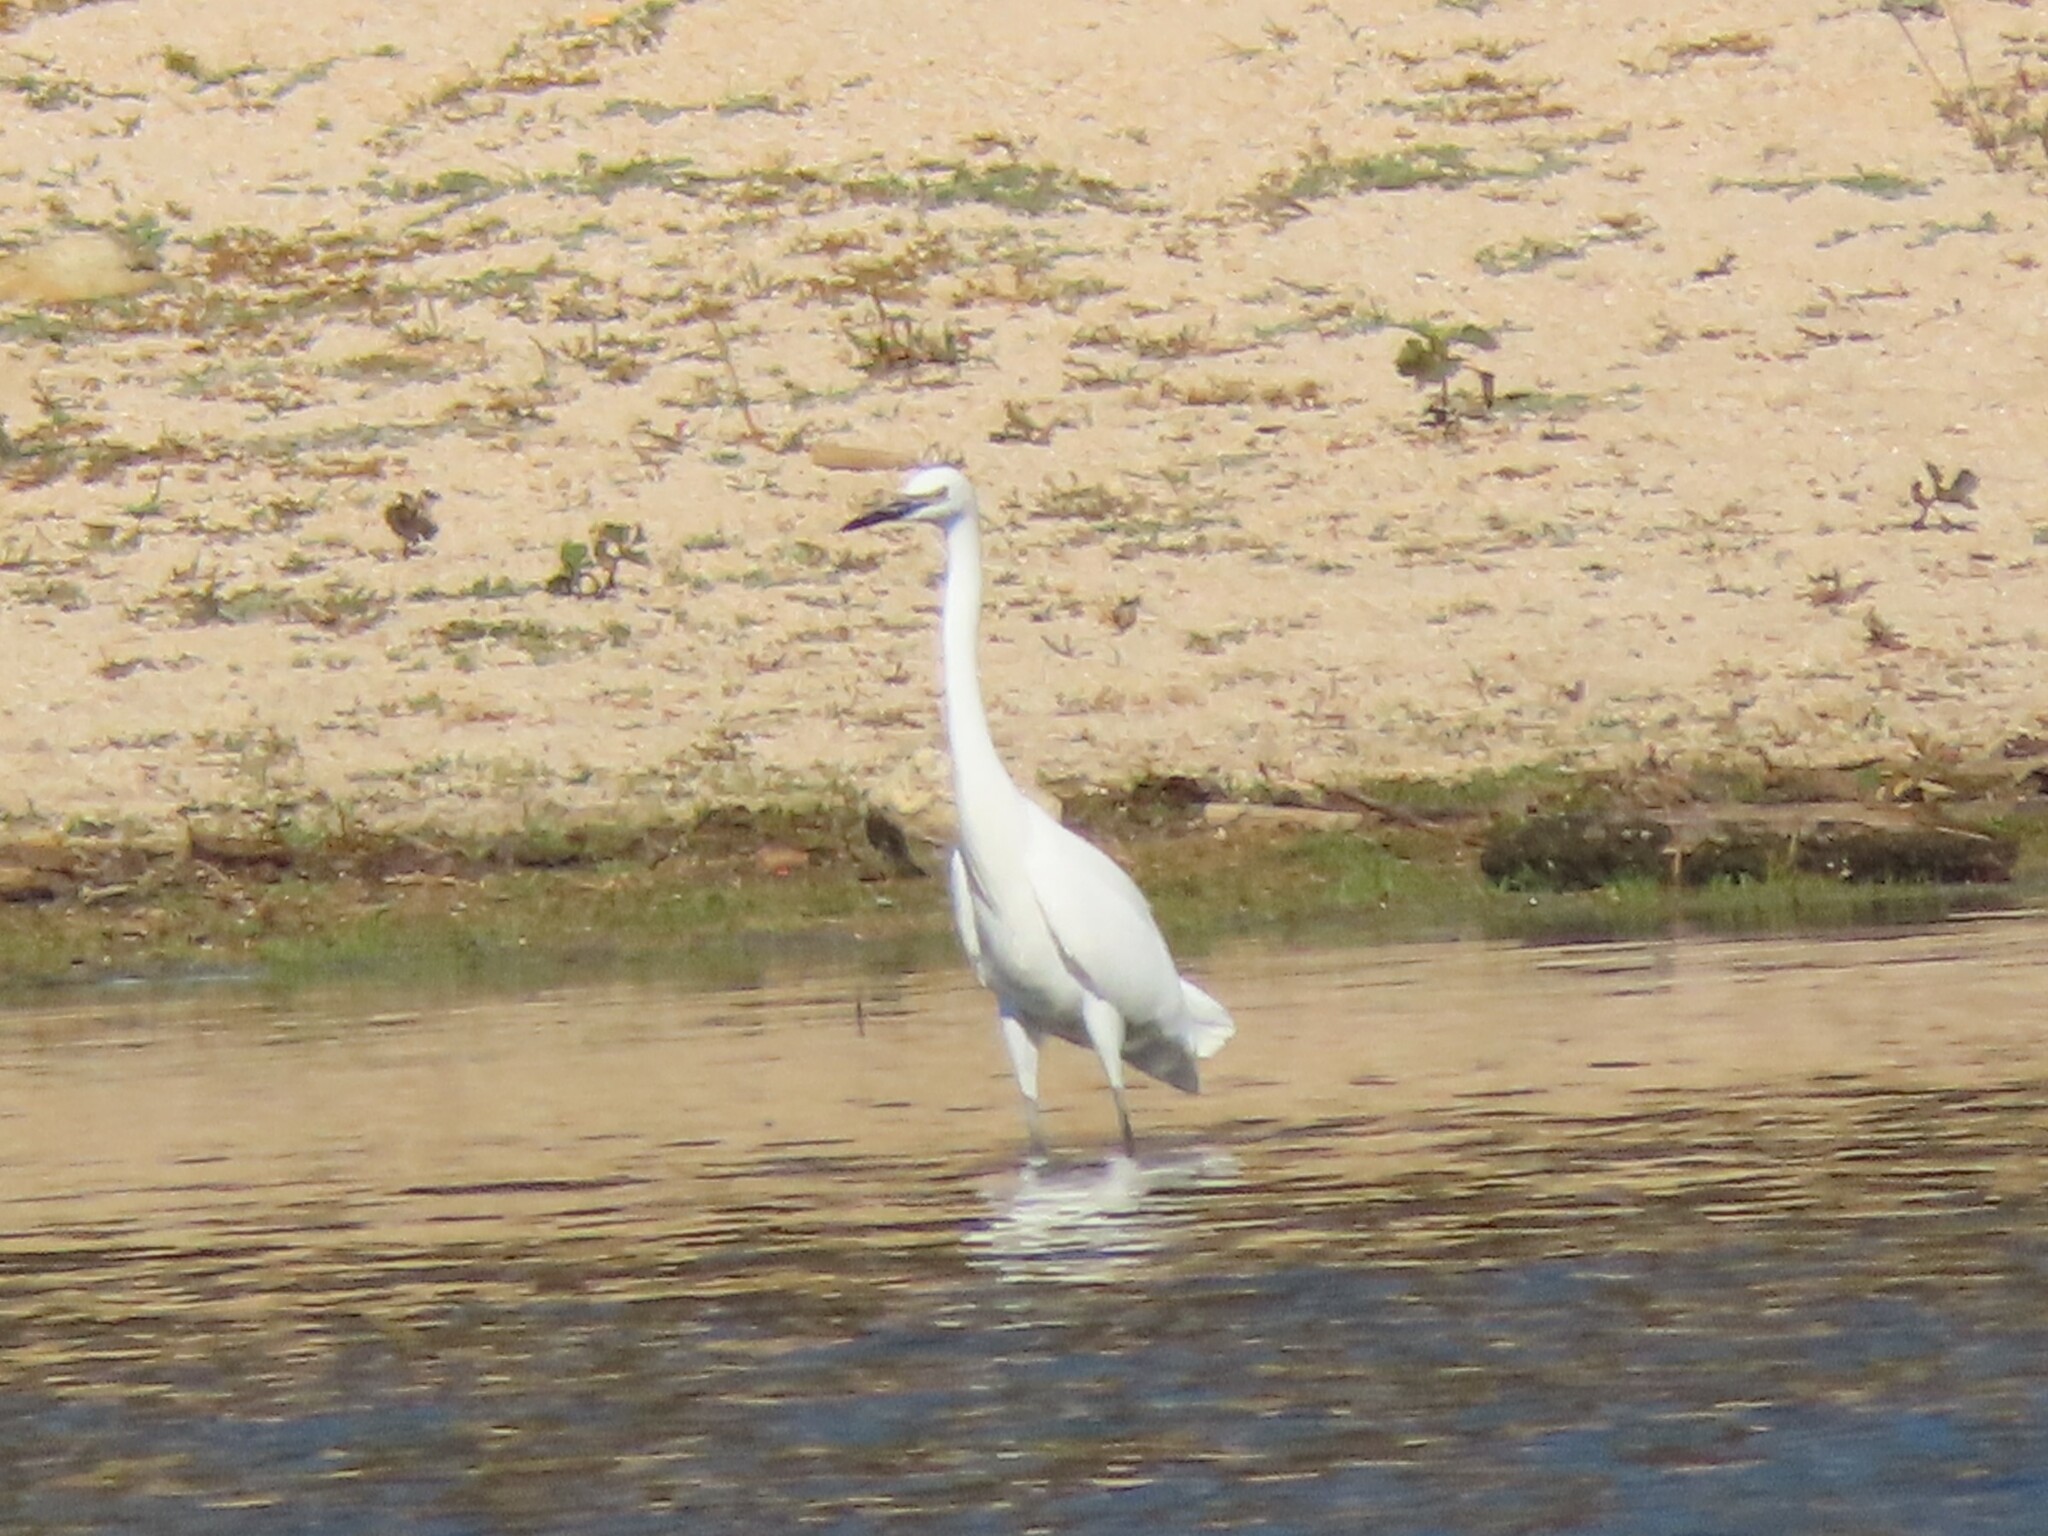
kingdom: Animalia
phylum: Chordata
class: Aves
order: Pelecaniformes
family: Ardeidae
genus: Egretta
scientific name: Egretta garzetta
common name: Little egret
